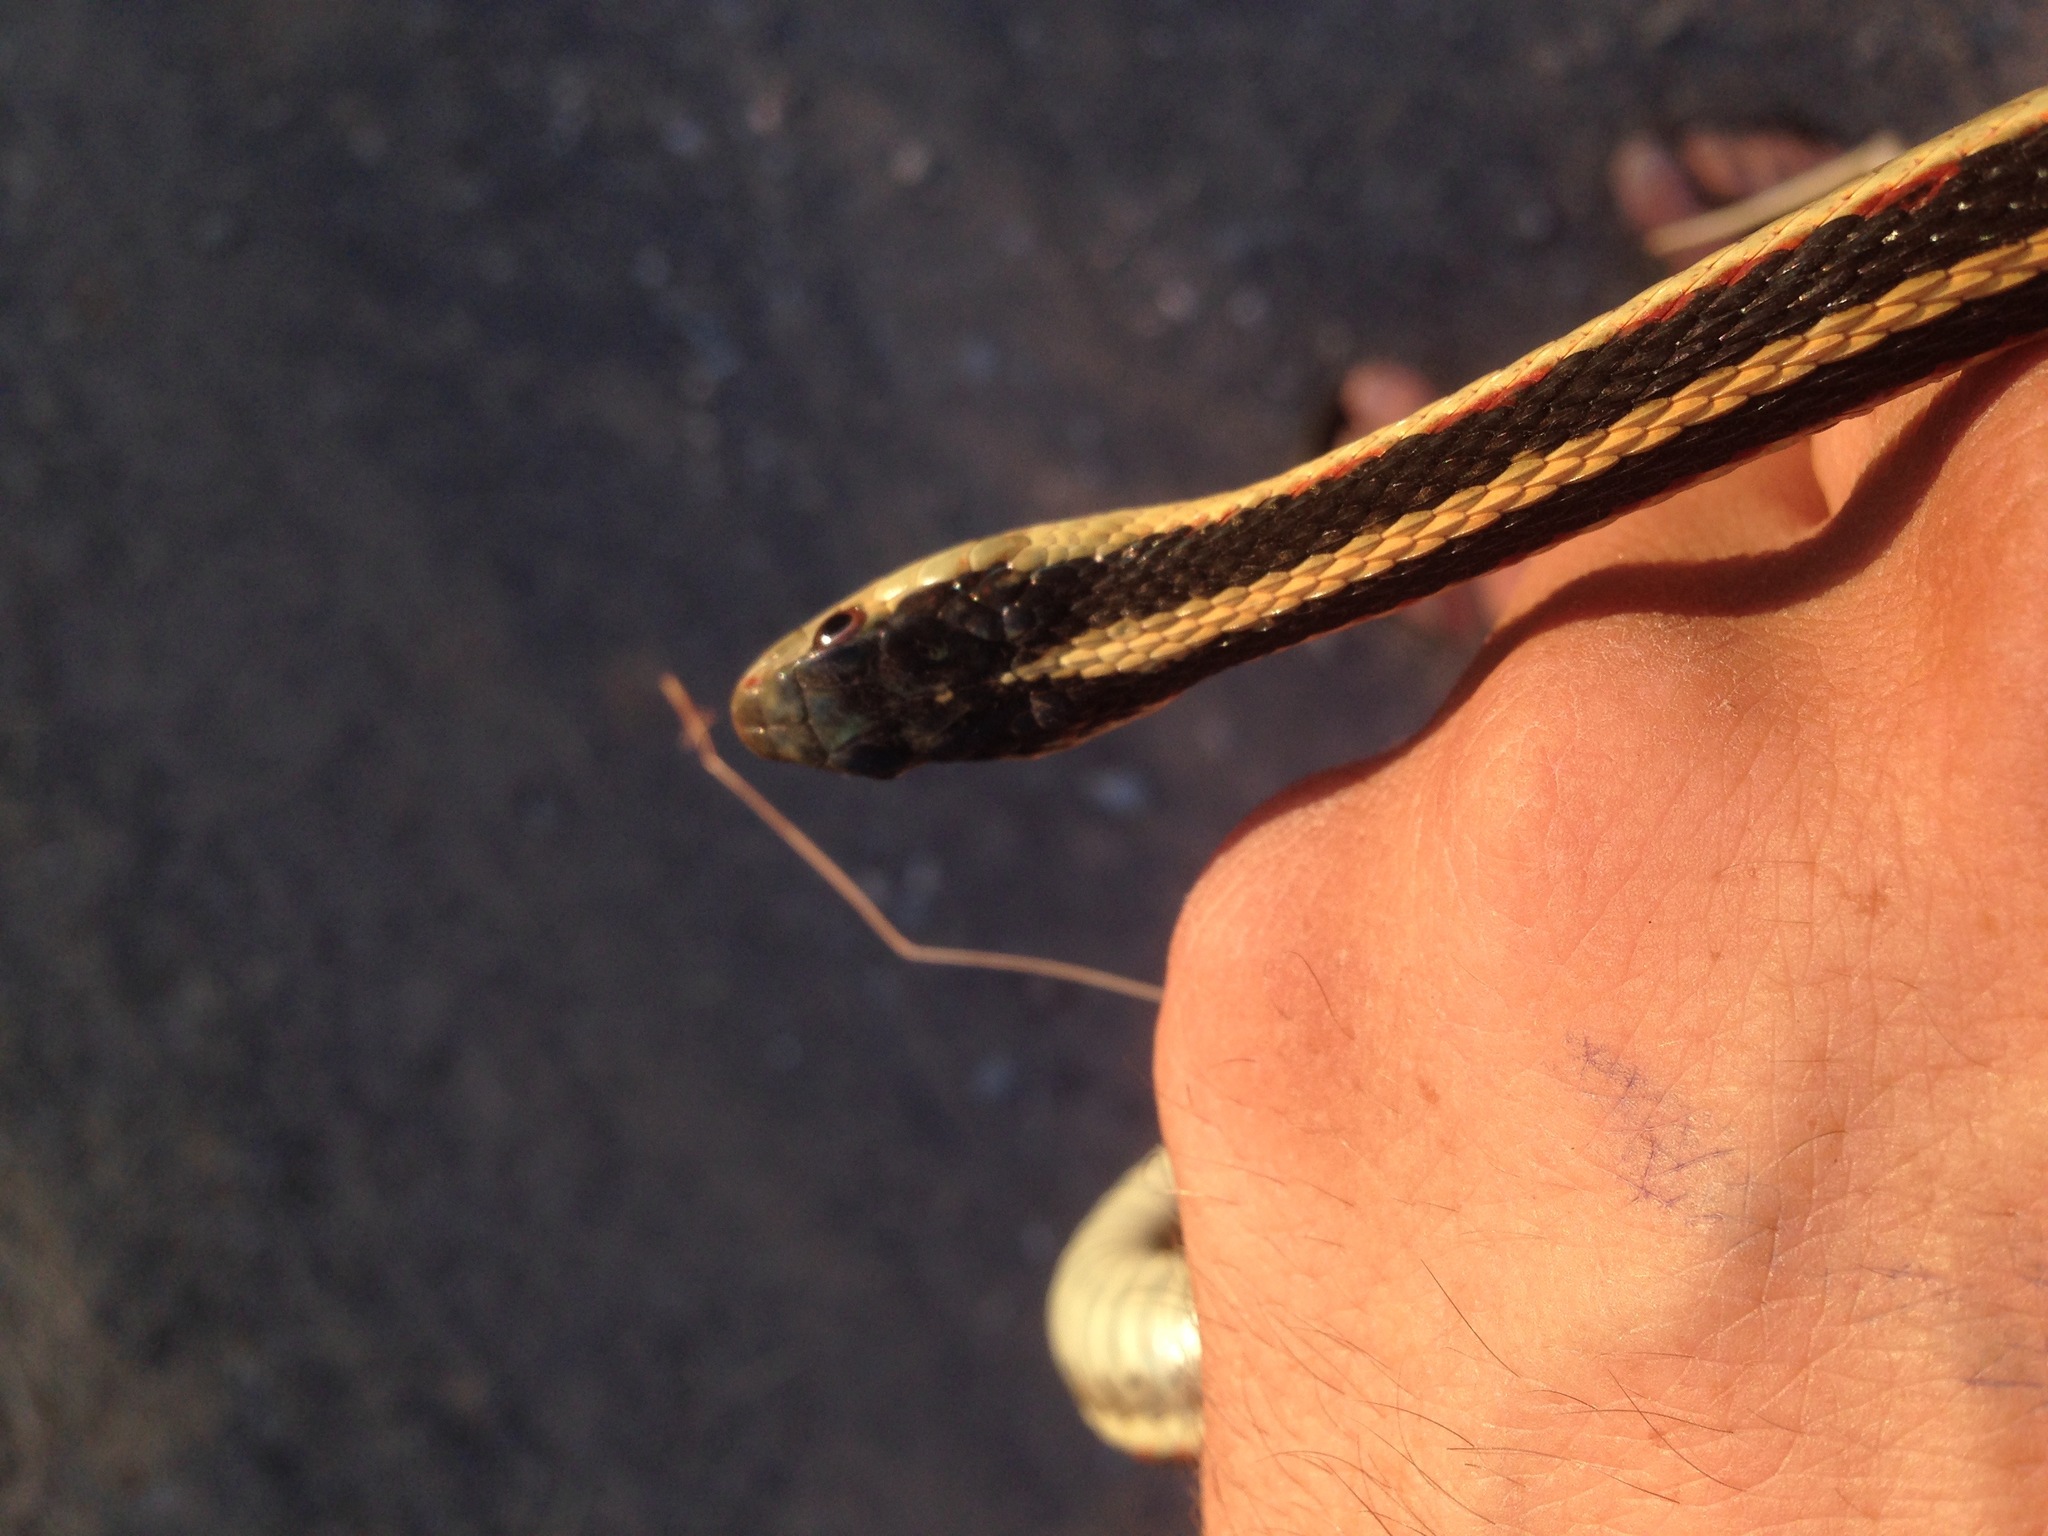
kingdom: Animalia
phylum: Chordata
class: Squamata
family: Colubridae
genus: Thamnophis
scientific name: Thamnophis sirtalis
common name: Common garter snake
